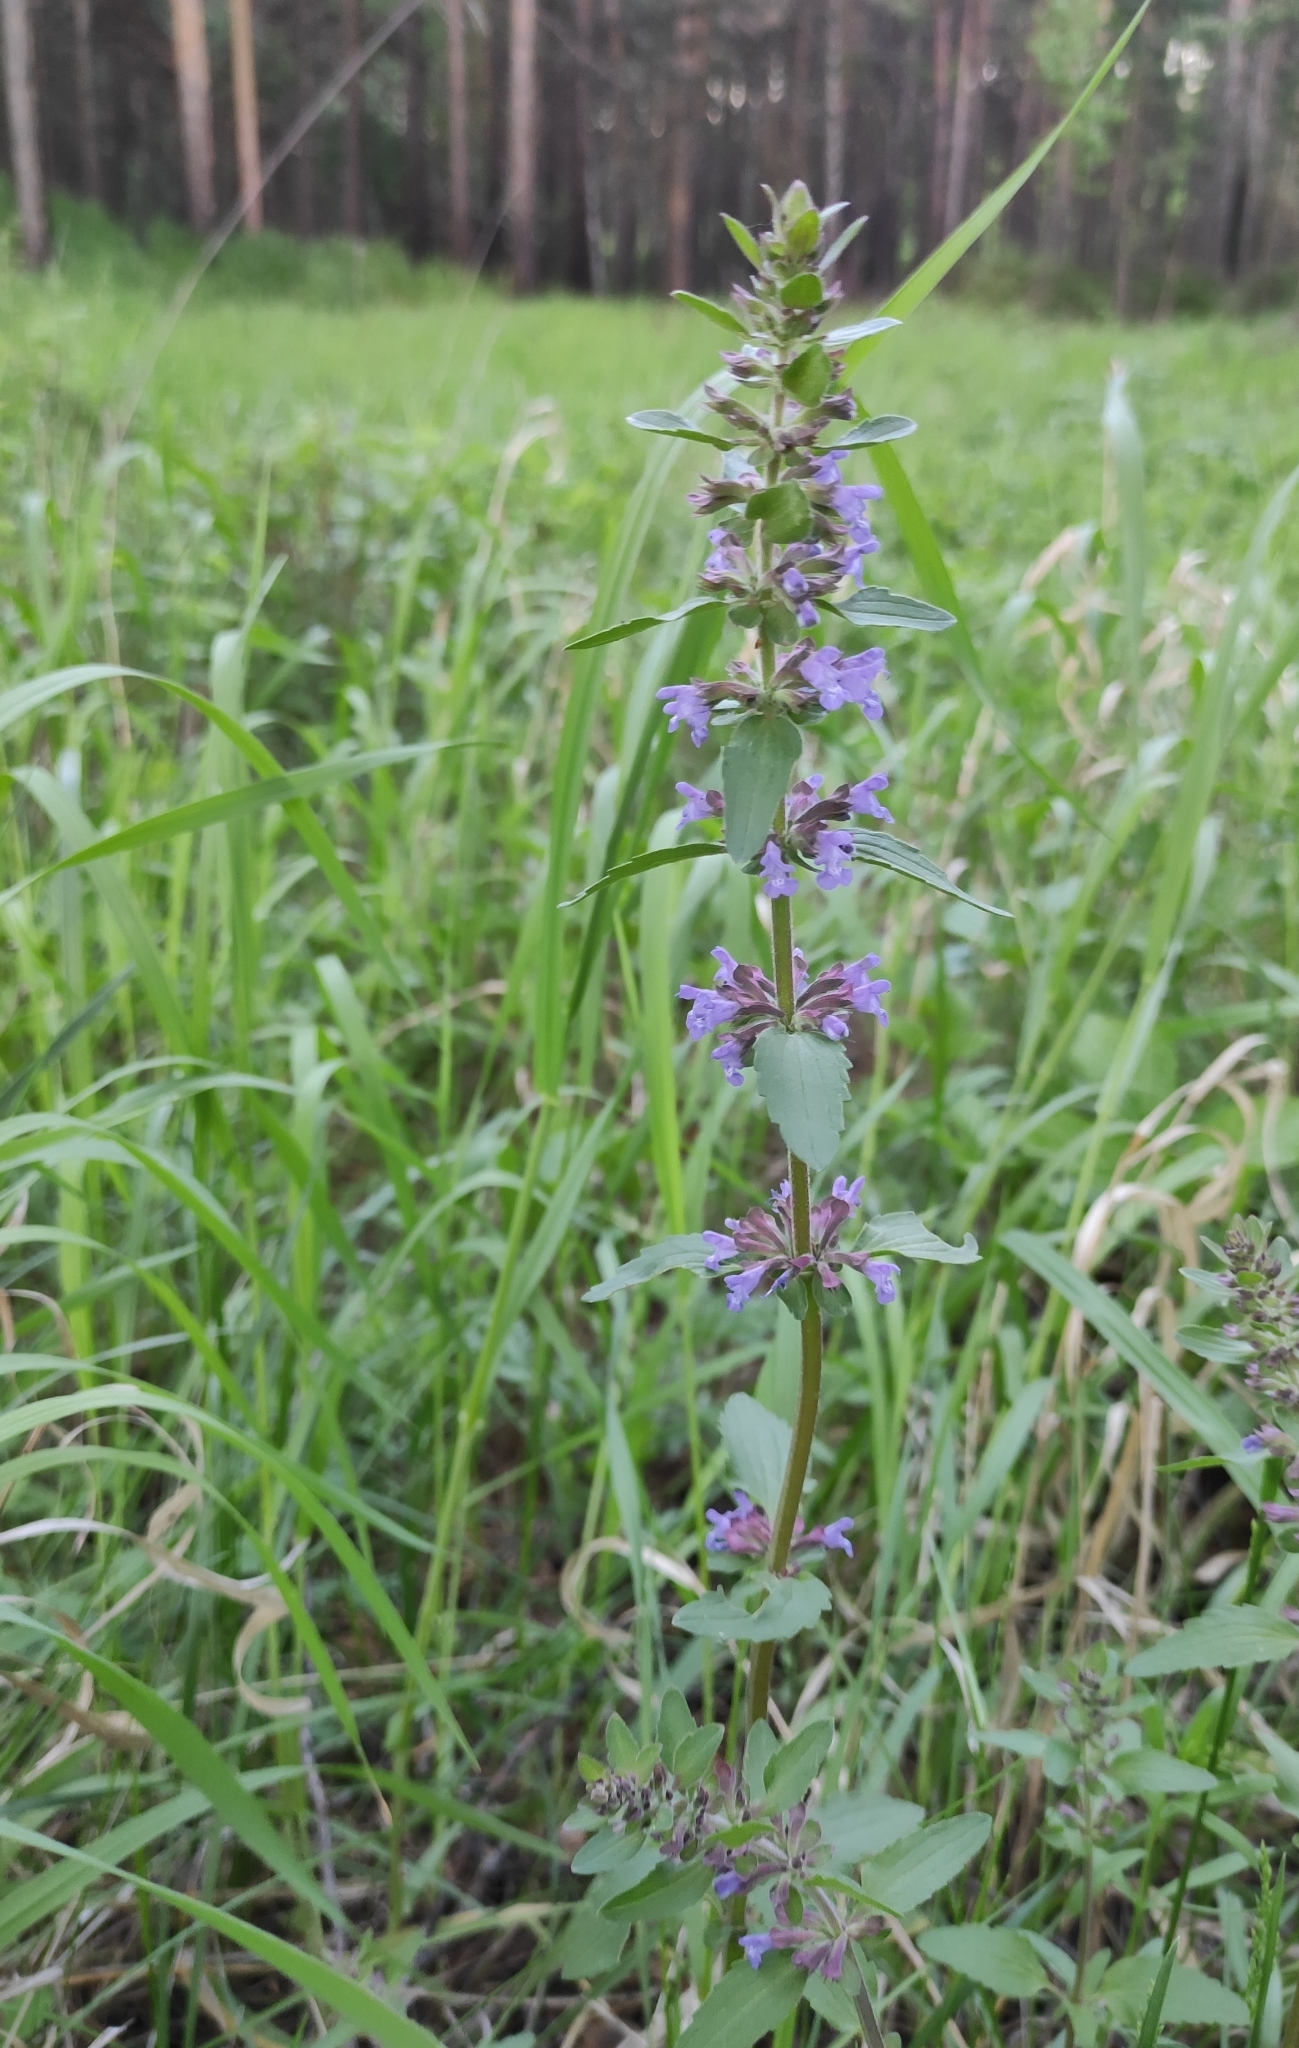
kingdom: Plantae
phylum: Tracheophyta
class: Magnoliopsida
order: Lamiales
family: Lamiaceae
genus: Dracocephalum
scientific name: Dracocephalum nutans
